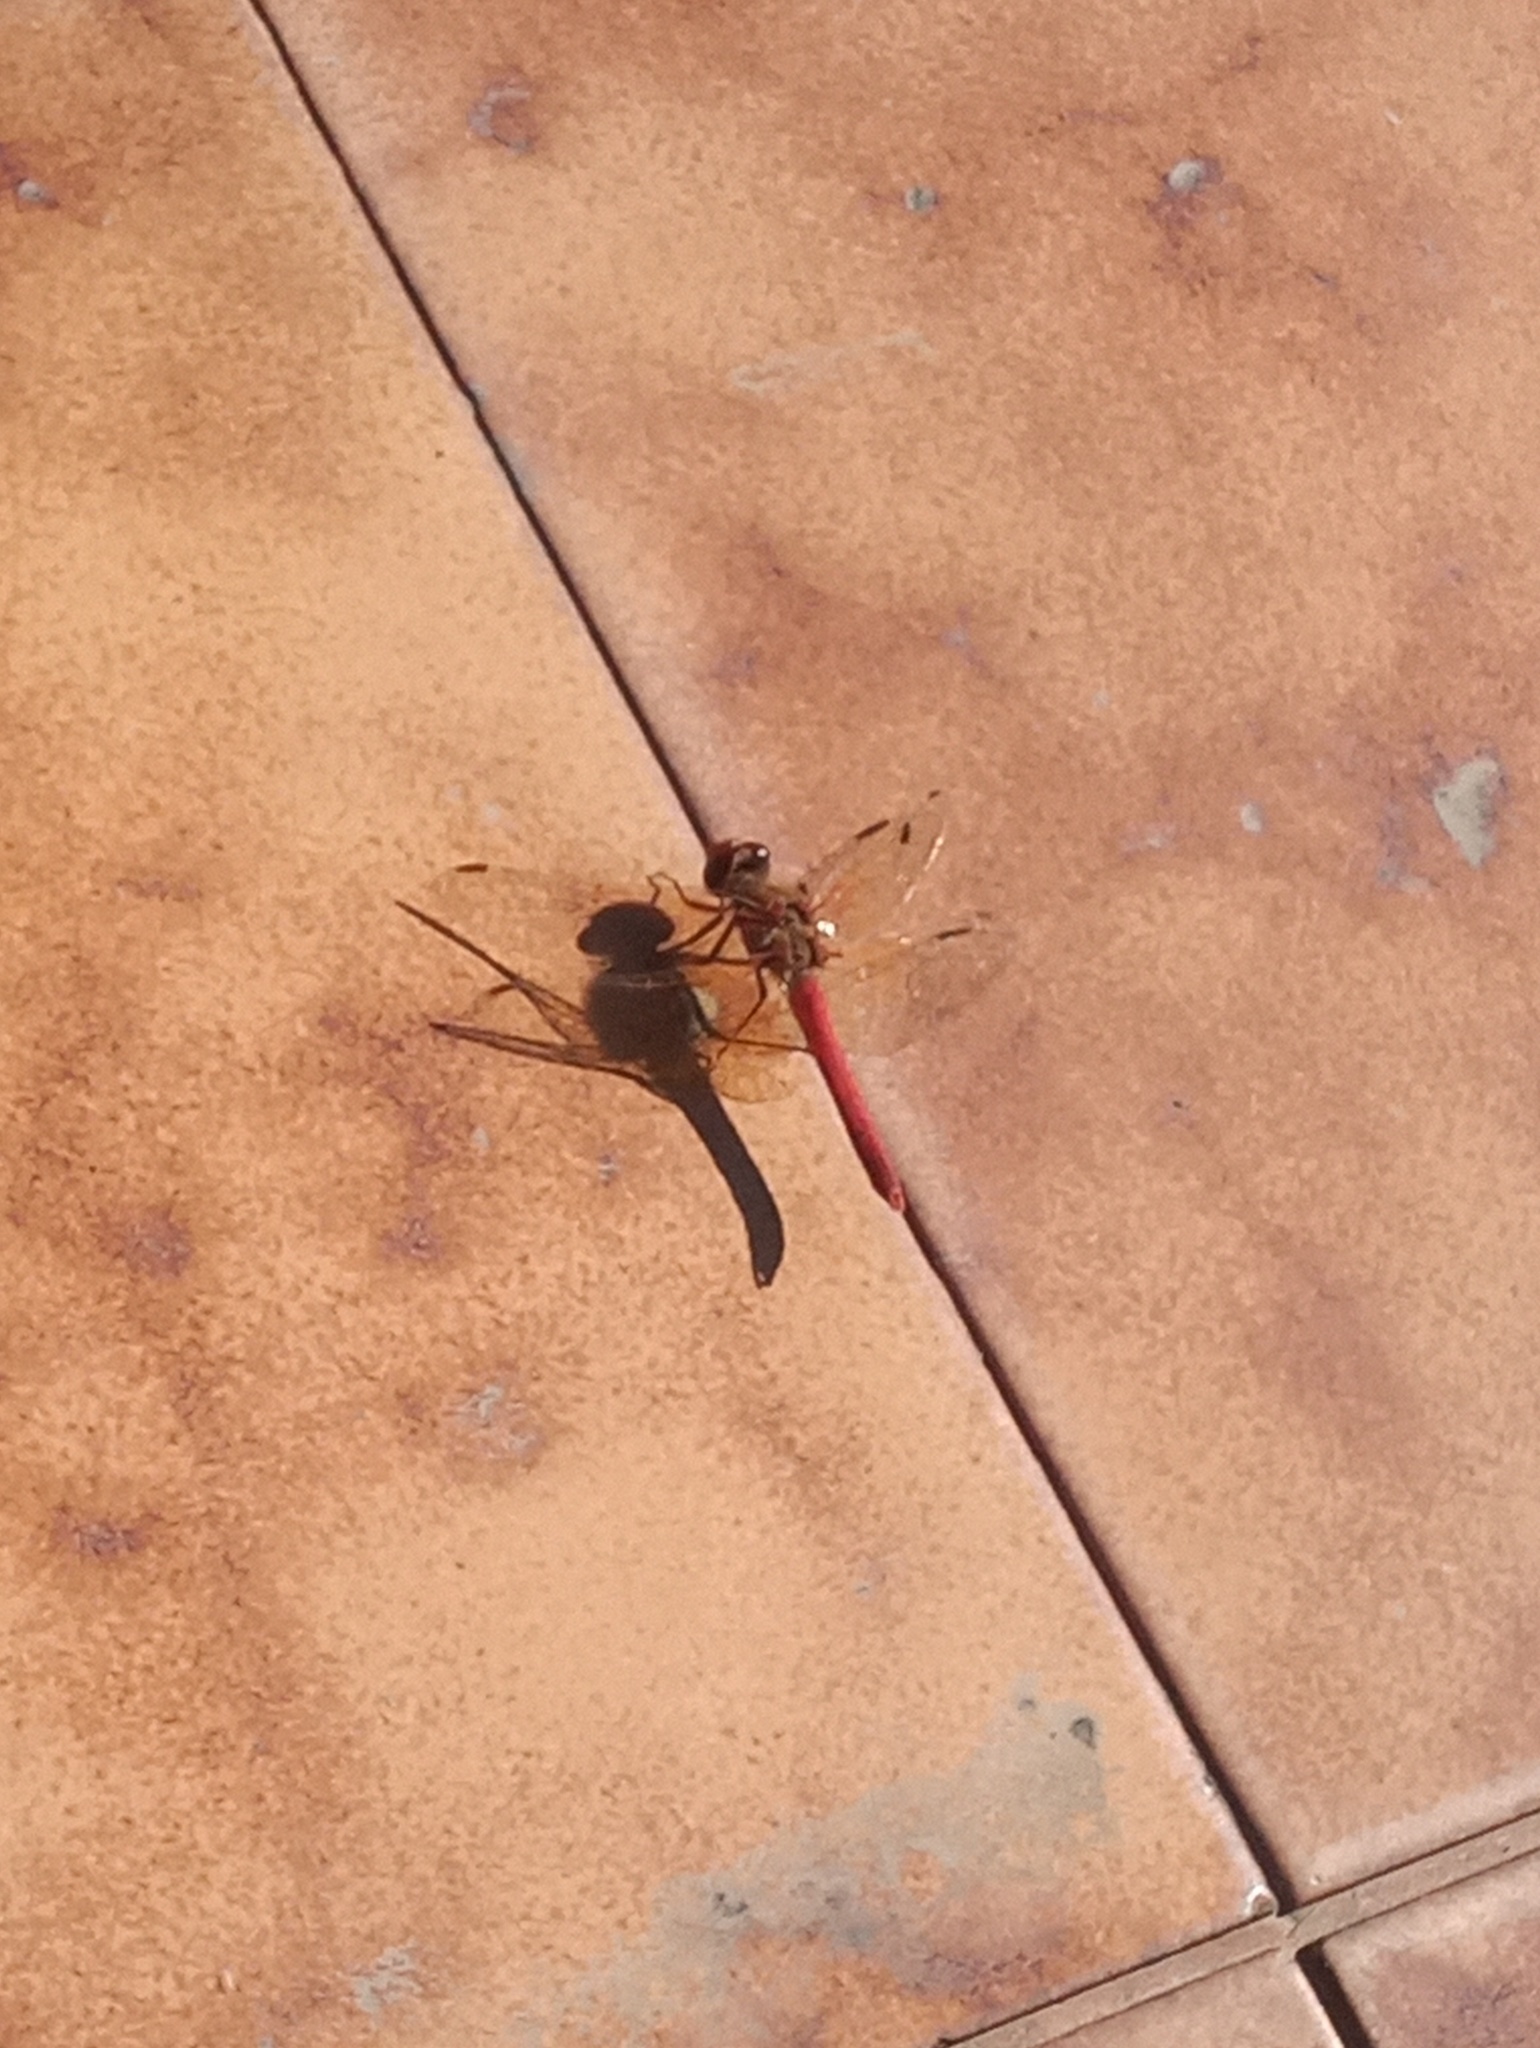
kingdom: Animalia
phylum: Arthropoda
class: Insecta
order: Odonata
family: Libellulidae
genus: Sympetrum
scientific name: Sympetrum illotum
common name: Cardinal meadowhawk
